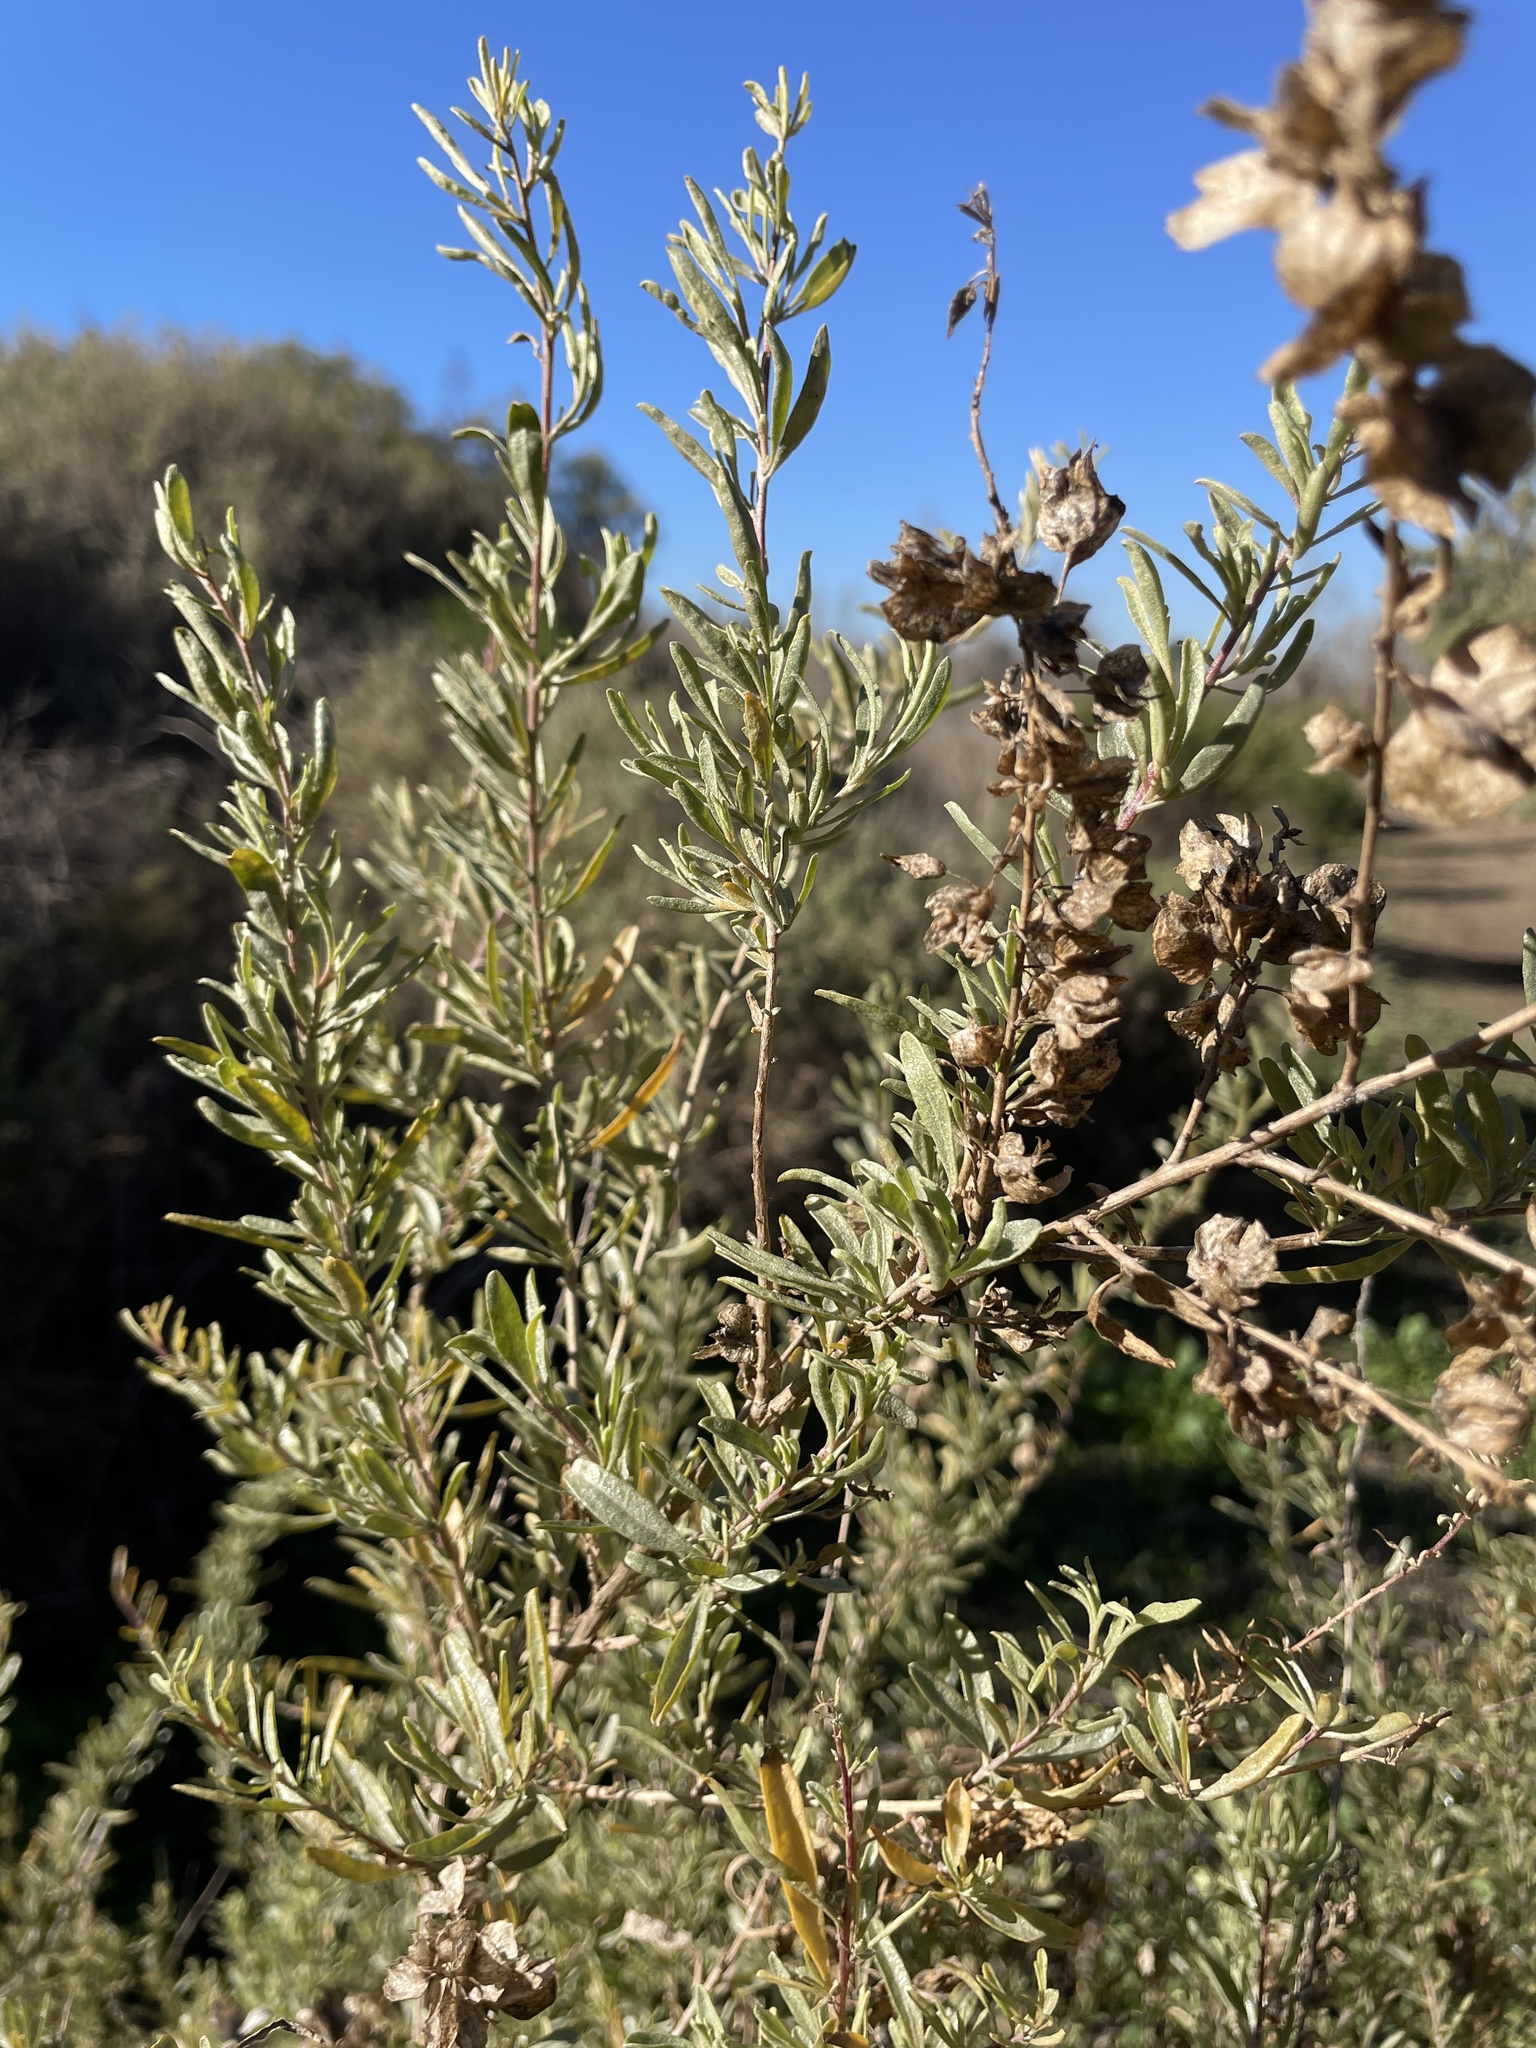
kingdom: Plantae
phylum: Tracheophyta
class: Magnoliopsida
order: Caryophyllales
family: Amaranthaceae
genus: Atriplex
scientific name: Atriplex canescens
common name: Four-wing saltbush
